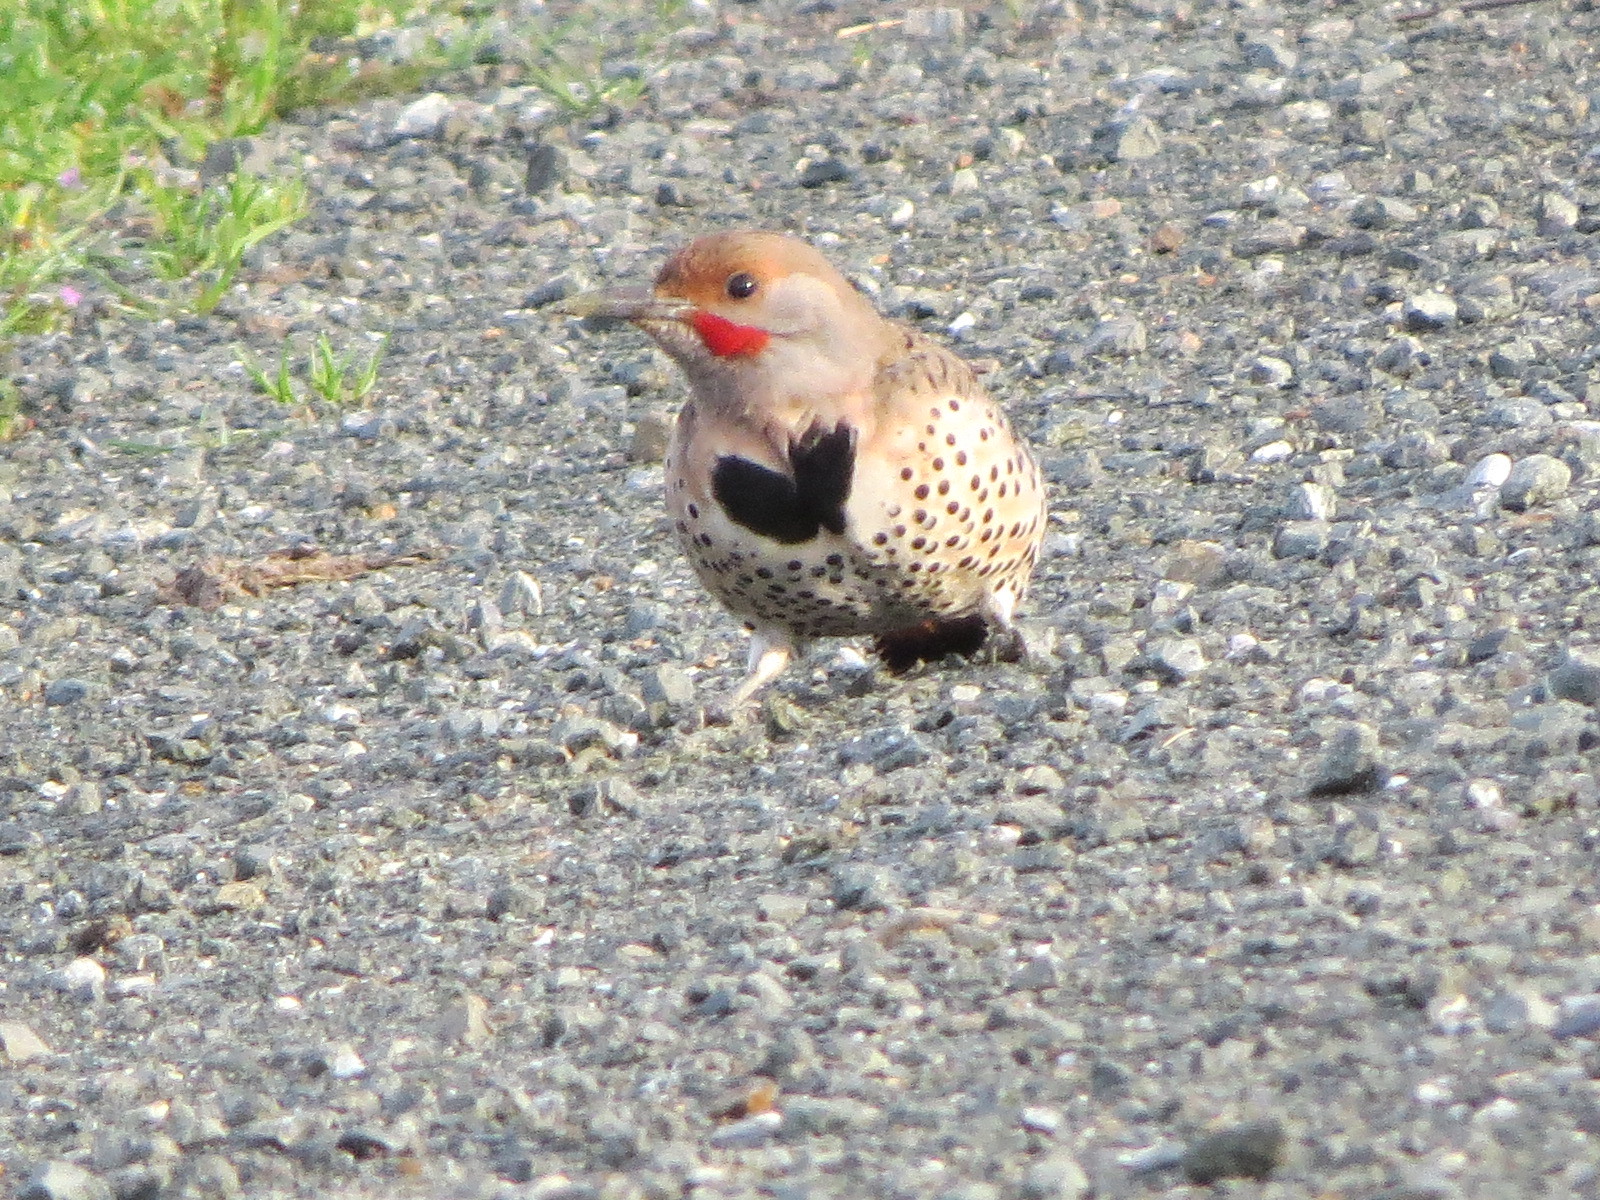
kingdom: Animalia
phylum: Chordata
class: Aves
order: Piciformes
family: Picidae
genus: Colaptes
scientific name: Colaptes auratus
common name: Northern flicker
